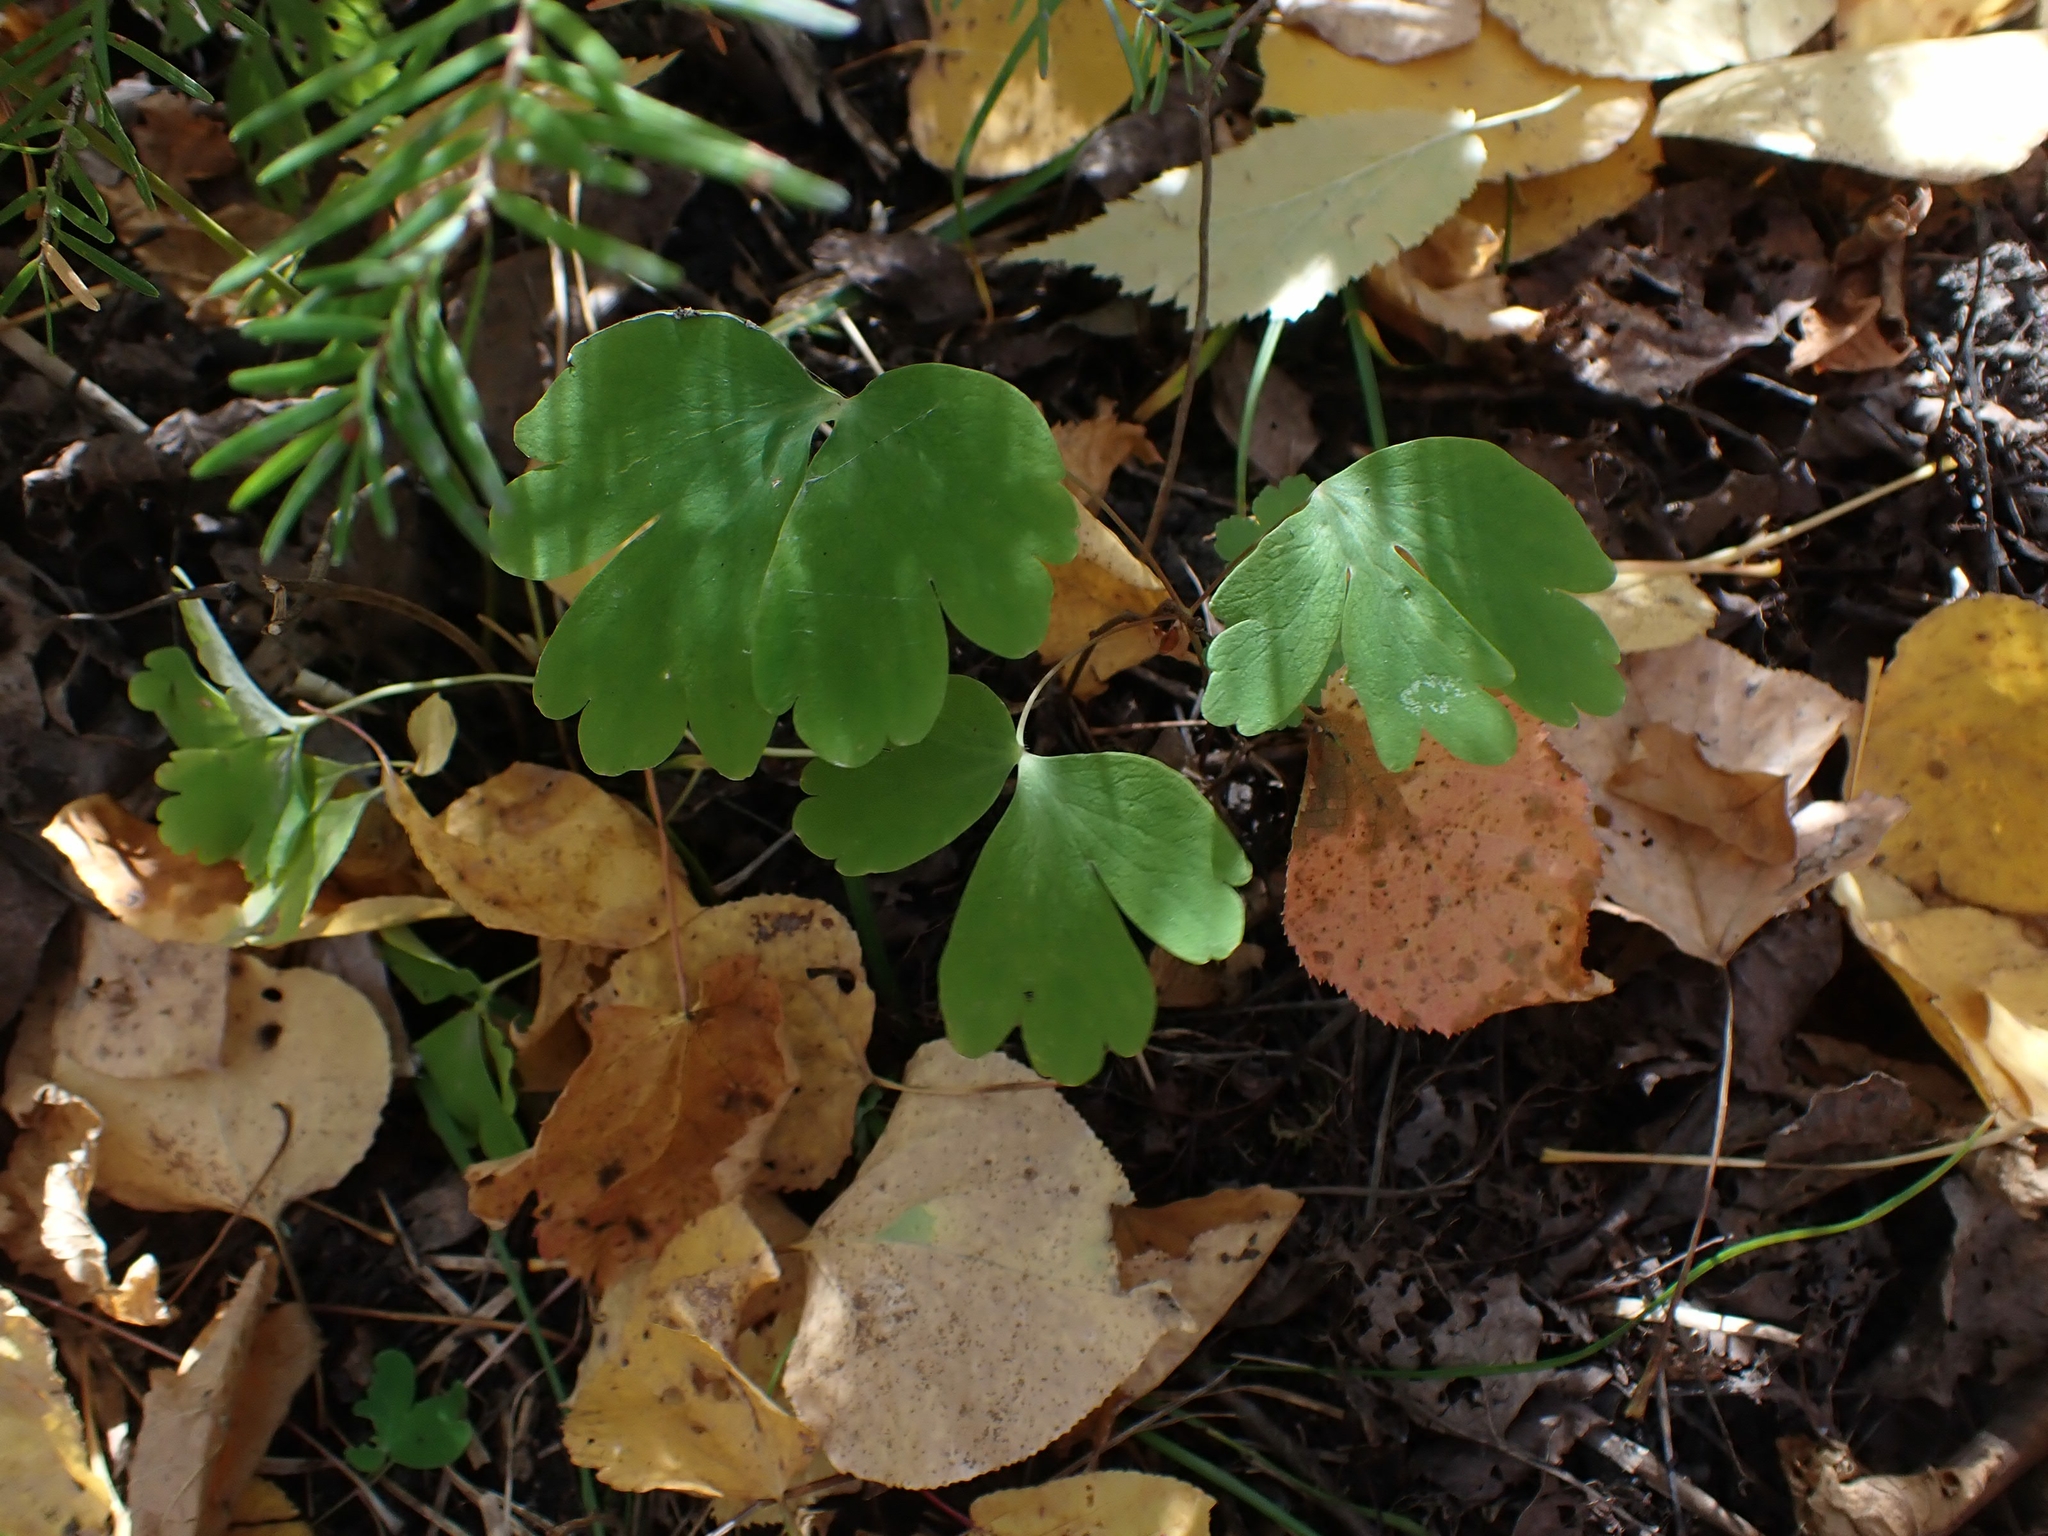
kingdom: Plantae
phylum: Tracheophyta
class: Magnoliopsida
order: Ranunculales
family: Ranunculaceae
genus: Aquilegia
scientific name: Aquilegia canadensis
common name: American columbine
